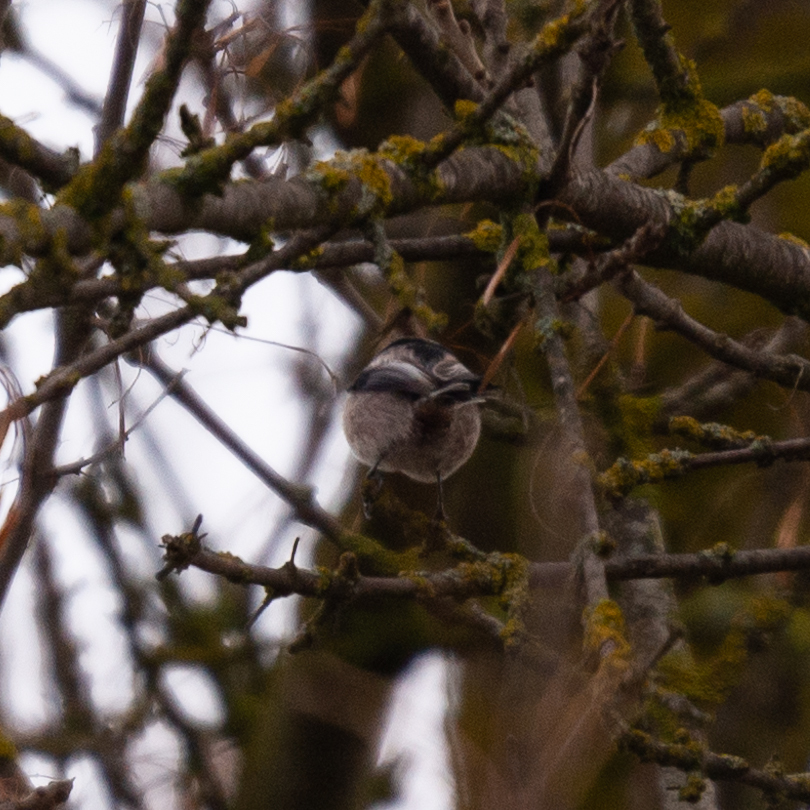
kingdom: Animalia
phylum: Chordata
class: Aves
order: Passeriformes
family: Aegithalidae
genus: Aegithalos
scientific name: Aegithalos caudatus
